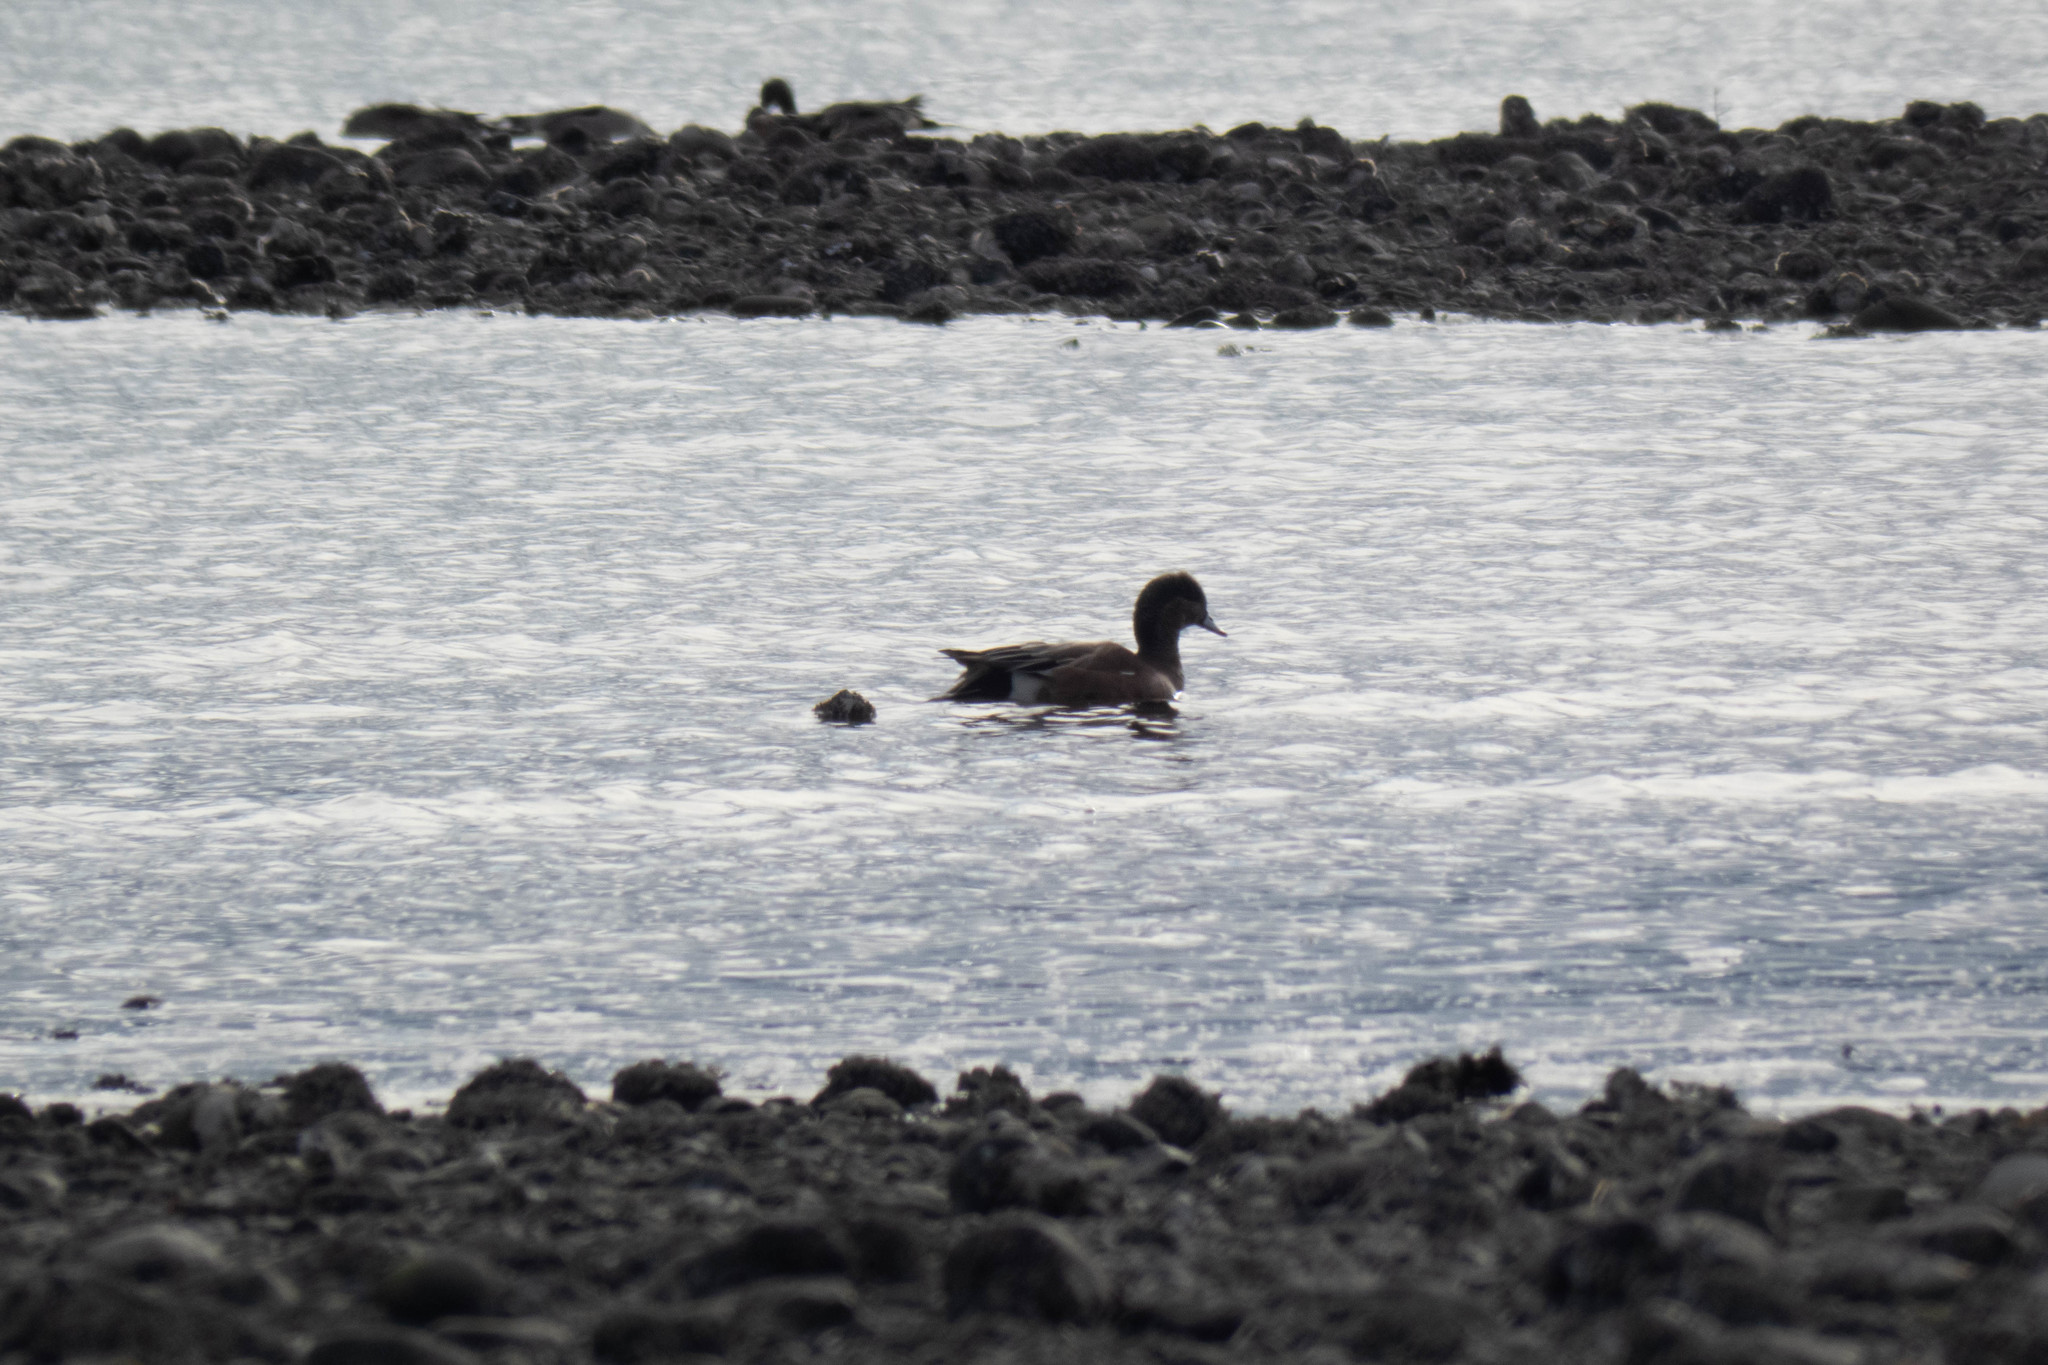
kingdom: Animalia
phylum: Chordata
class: Aves
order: Anseriformes
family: Anatidae
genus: Mareca
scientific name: Mareca americana
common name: American wigeon
